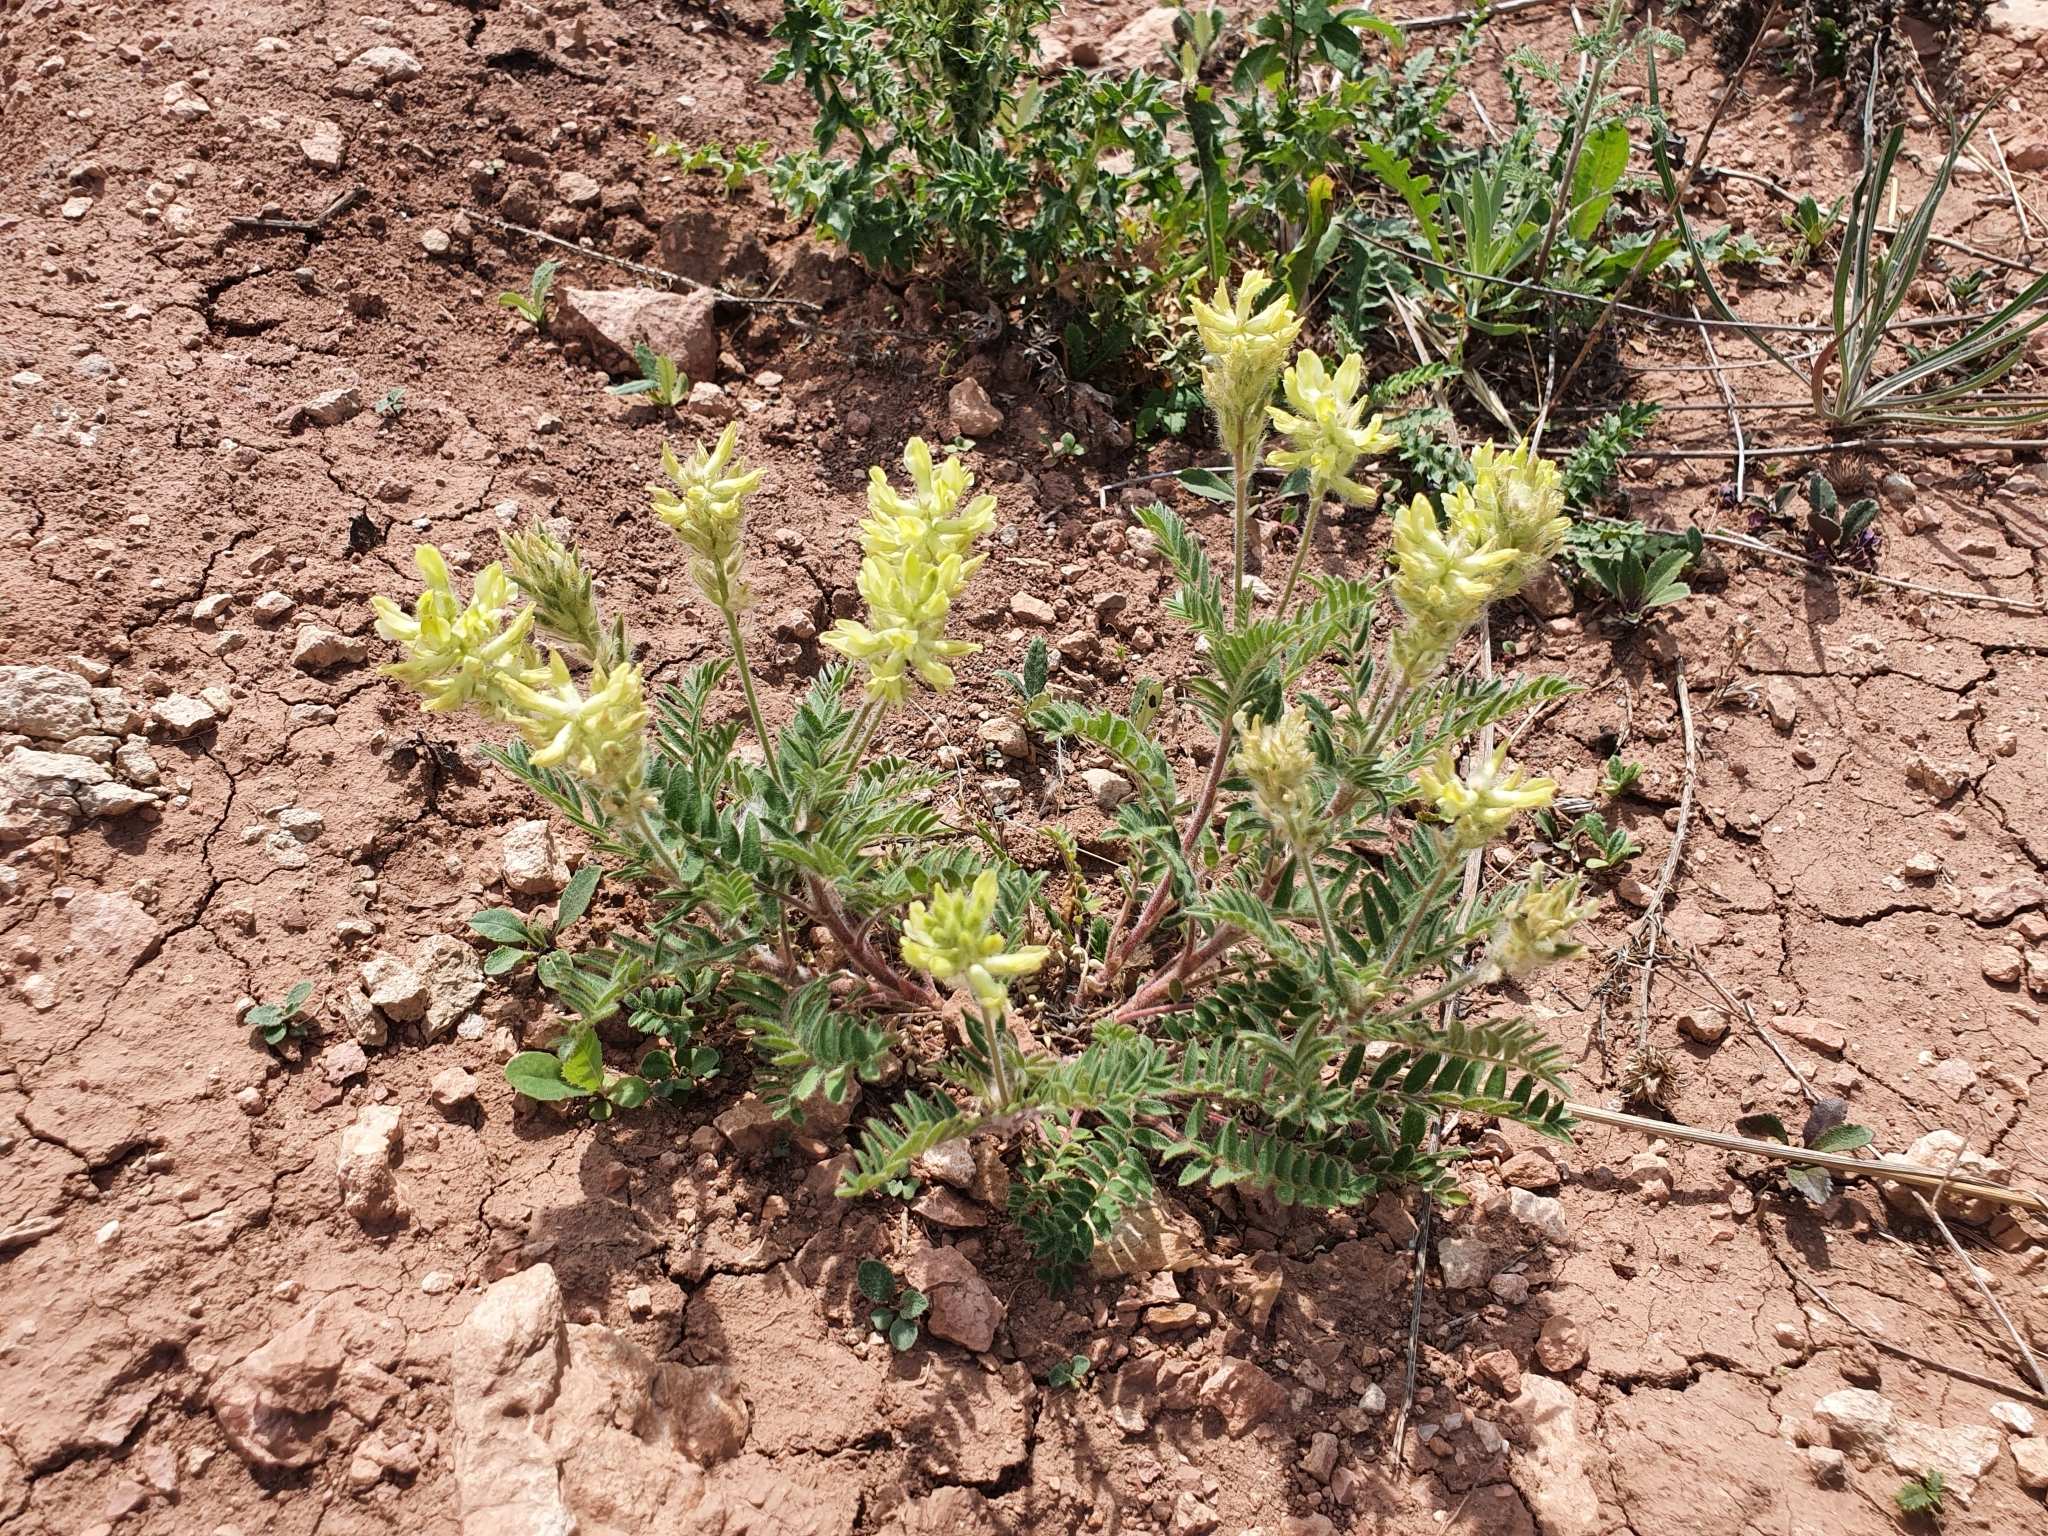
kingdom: Plantae
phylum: Tracheophyta
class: Magnoliopsida
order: Fabales
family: Fabaceae
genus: Oxytropis
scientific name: Oxytropis pilosa
